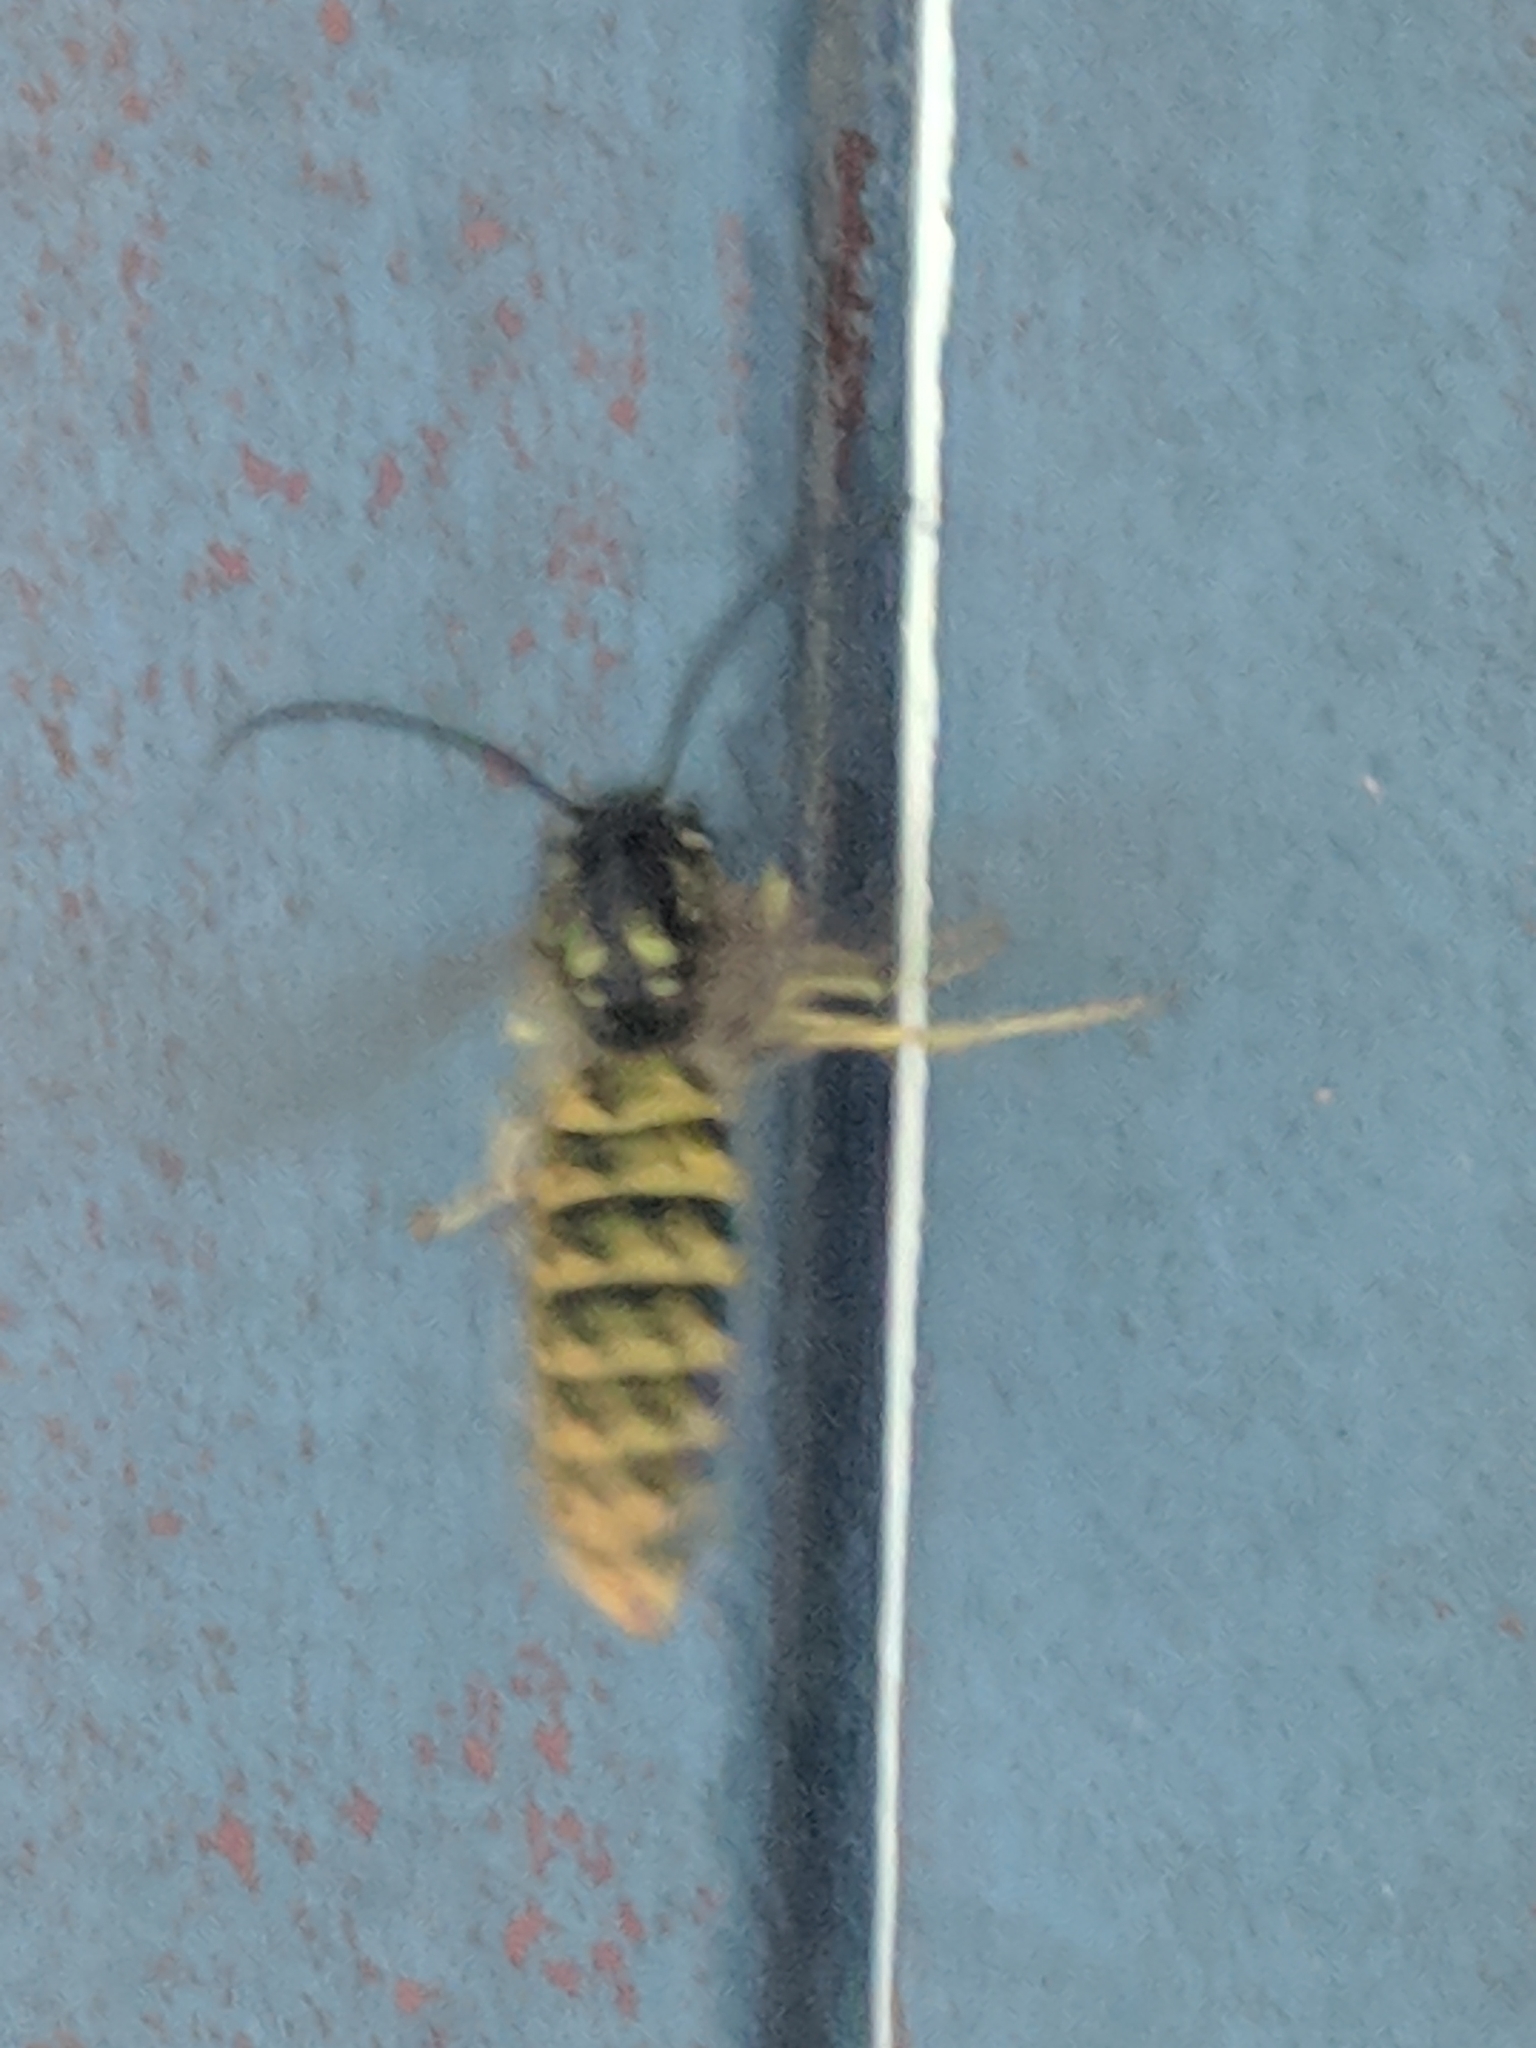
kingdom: Animalia
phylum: Arthropoda
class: Insecta
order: Hymenoptera
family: Vespidae
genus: Vespula
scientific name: Vespula vulgaris
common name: Common wasp
